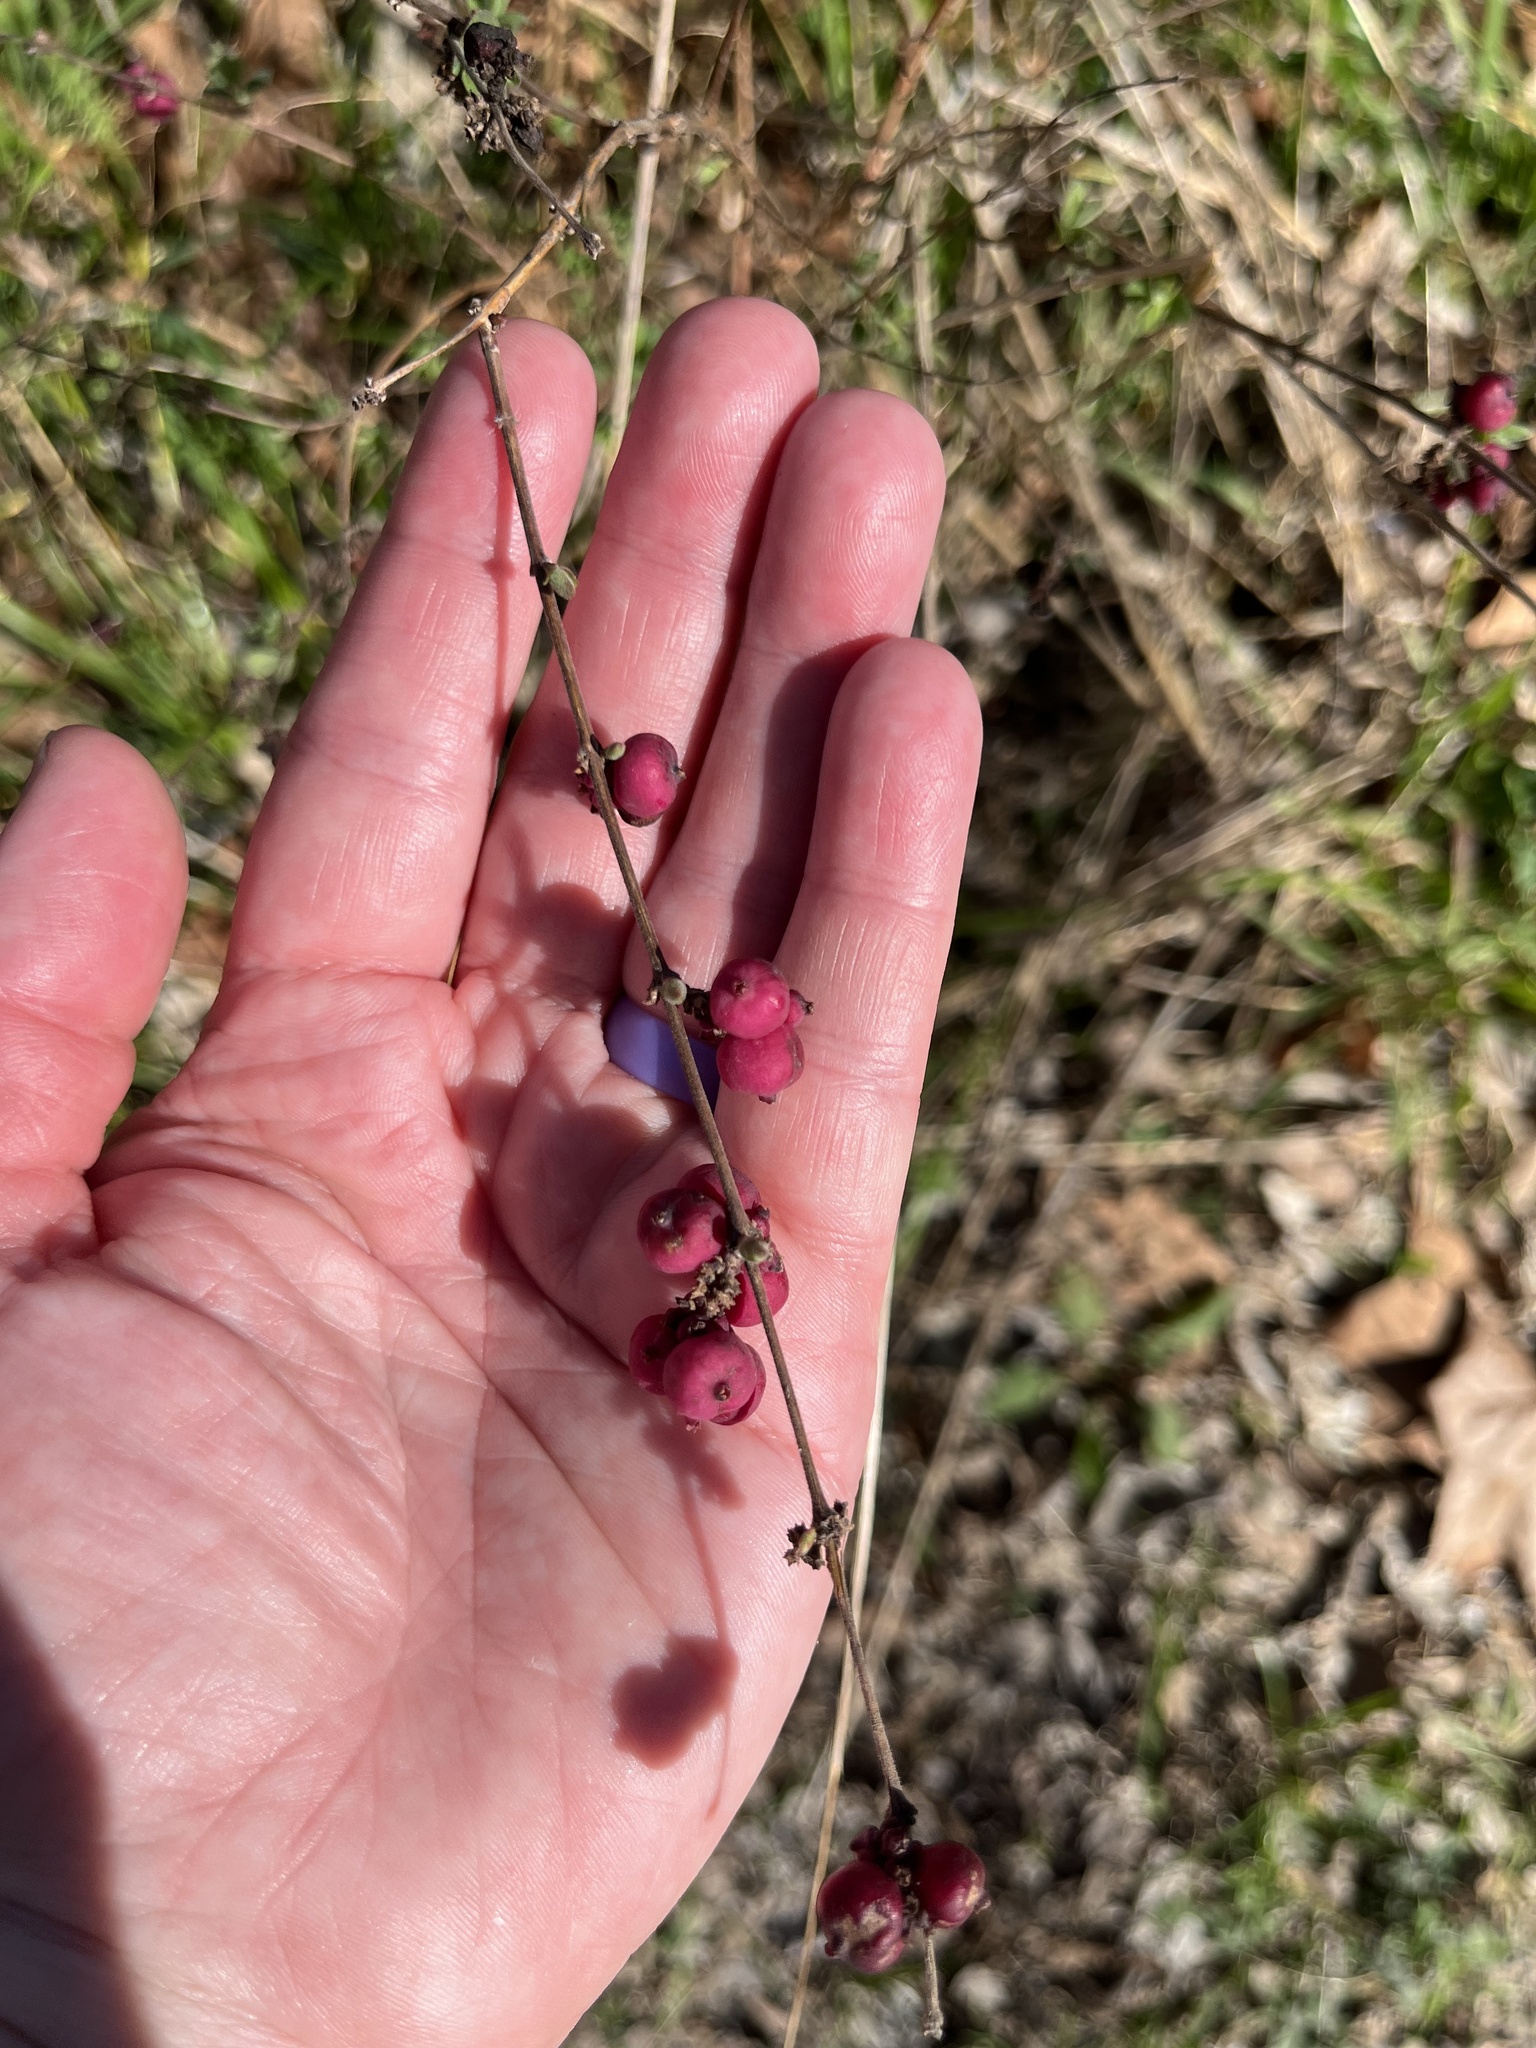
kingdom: Plantae
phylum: Tracheophyta
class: Magnoliopsida
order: Dipsacales
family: Caprifoliaceae
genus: Symphoricarpos
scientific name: Symphoricarpos orbiculatus
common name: Coralberry
